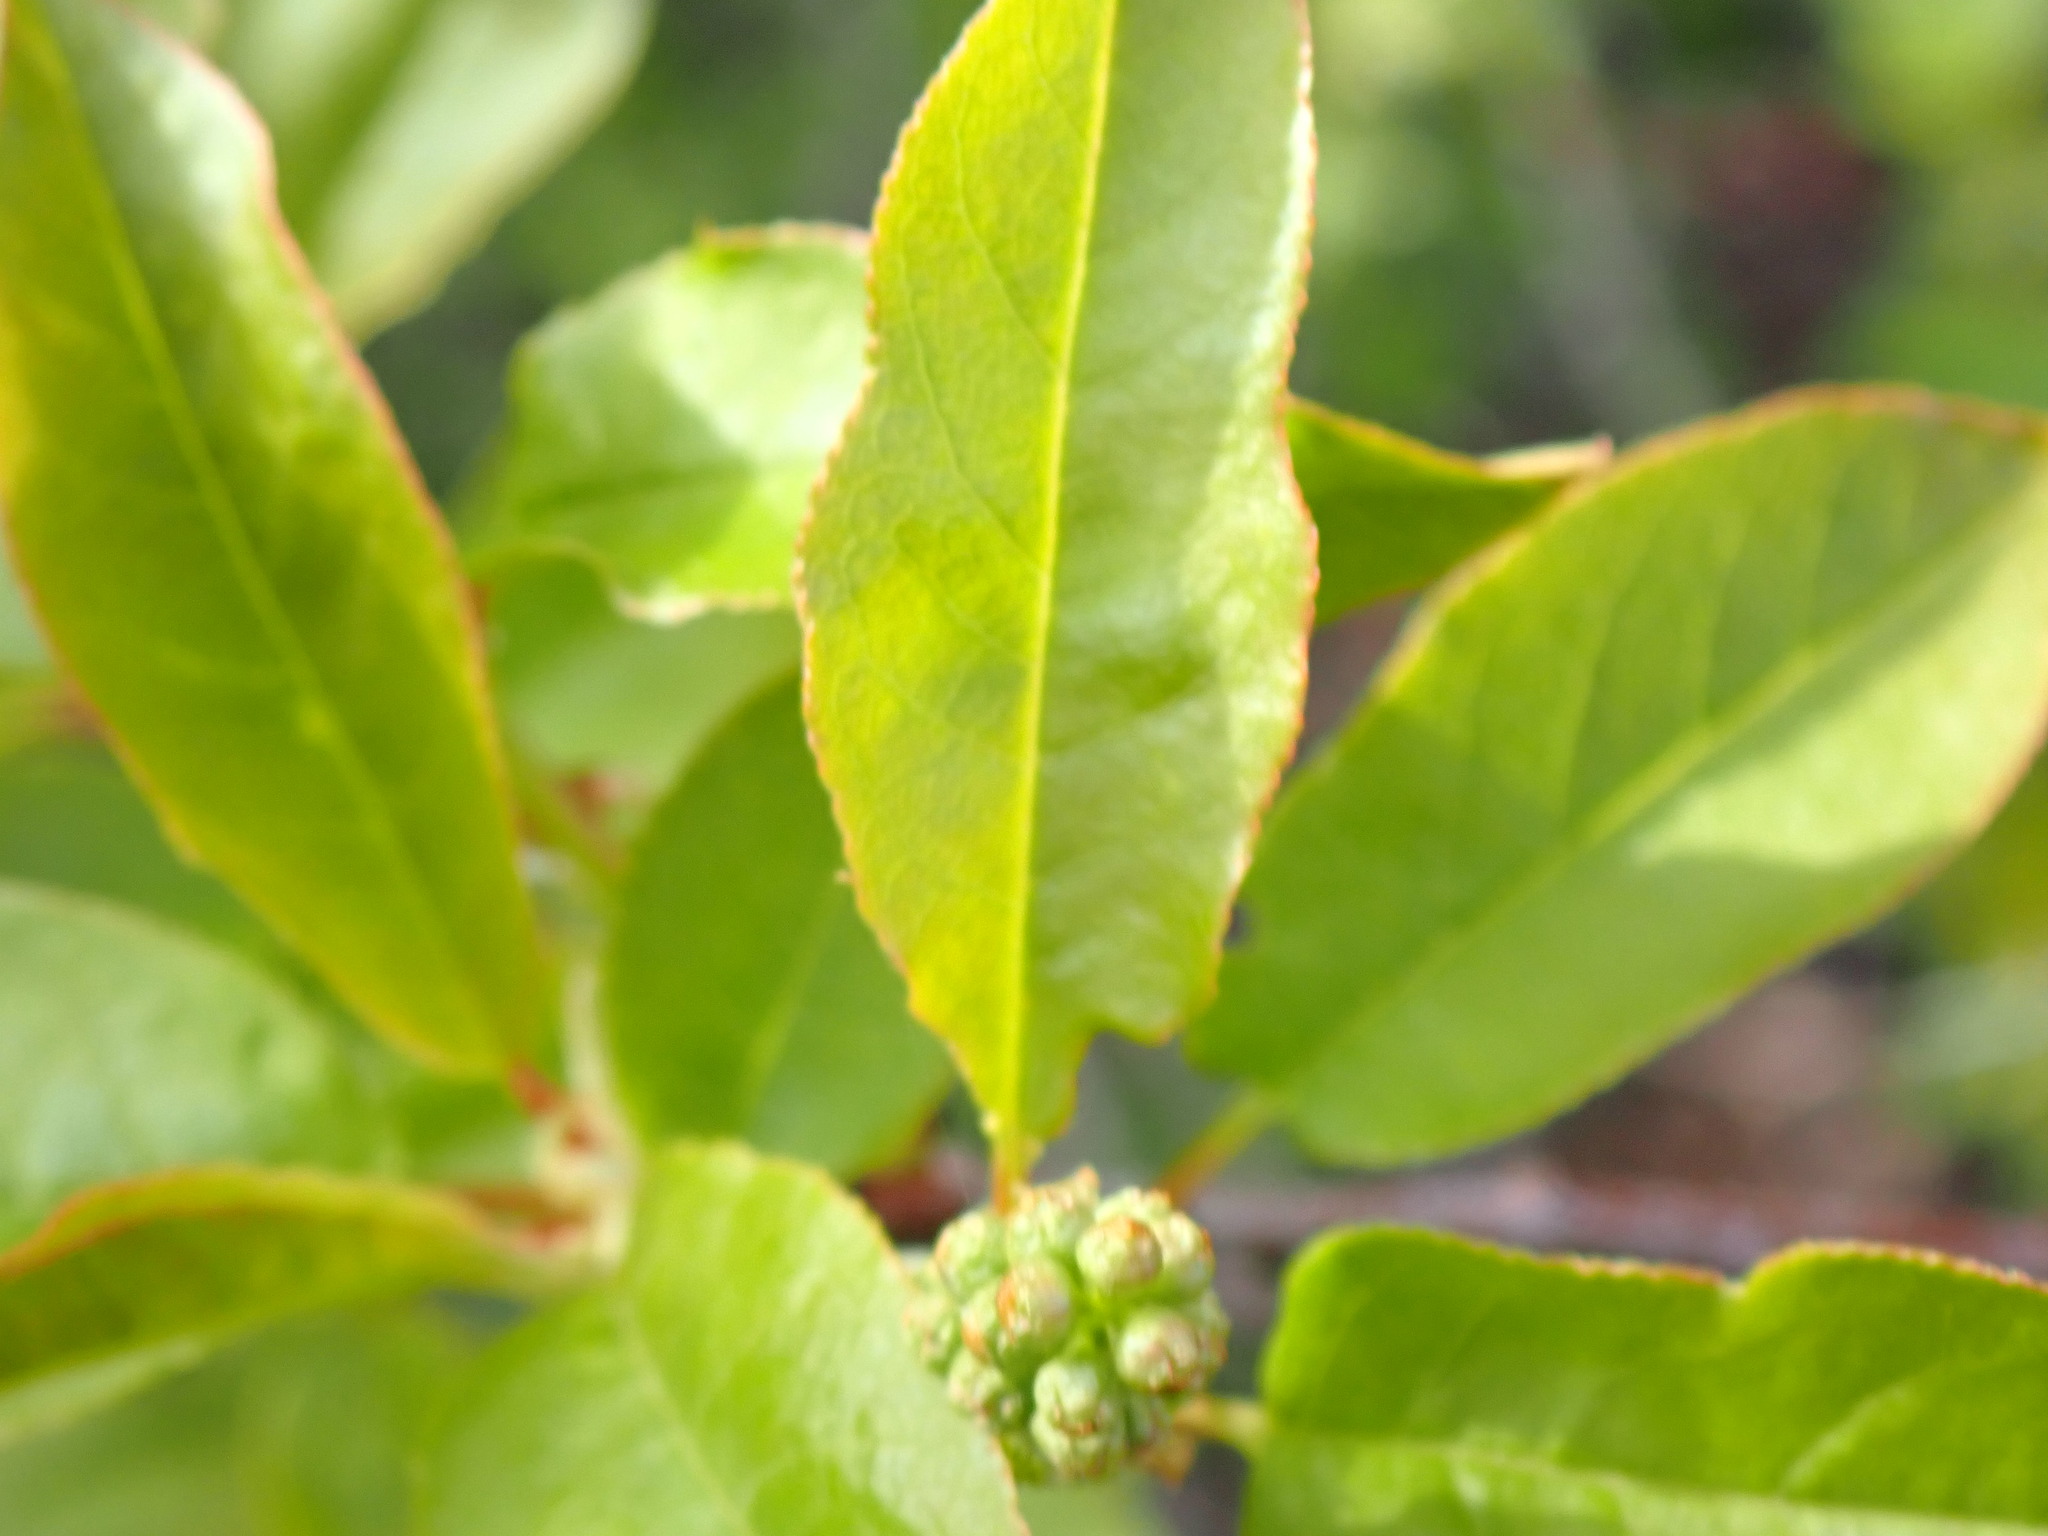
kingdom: Plantae
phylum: Tracheophyta
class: Magnoliopsida
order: Rosales
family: Rosaceae
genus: Prunus
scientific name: Prunus virginiana
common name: Chokecherry
